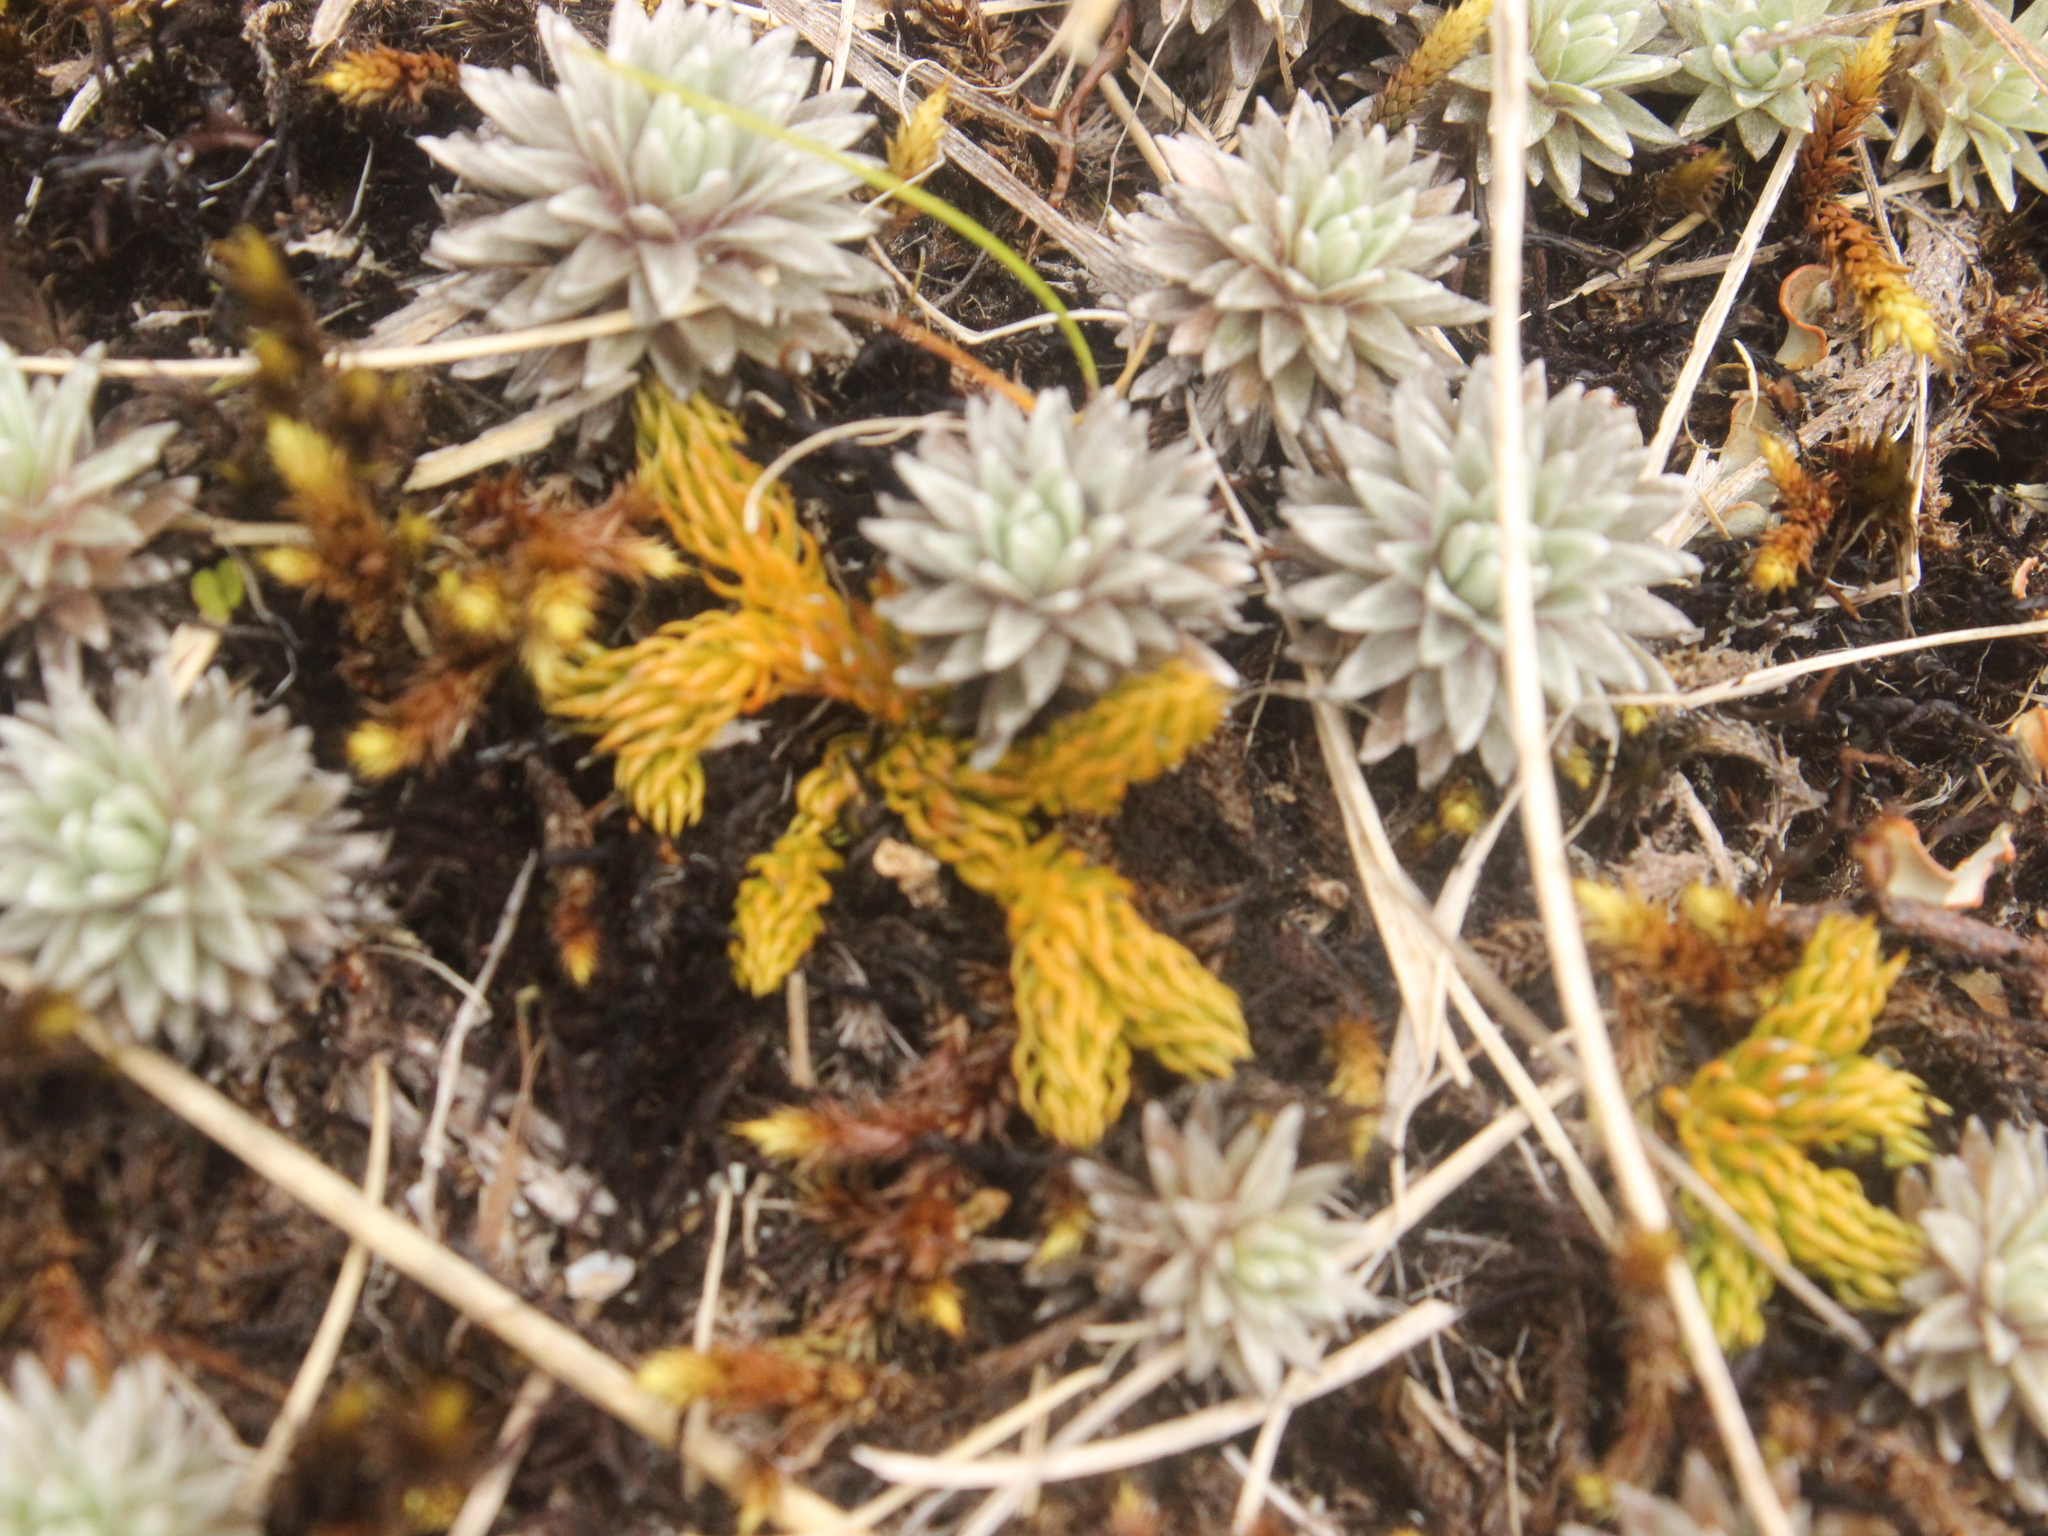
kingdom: Plantae
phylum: Tracheophyta
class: Magnoliopsida
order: Asterales
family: Asteraceae
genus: Raoulia
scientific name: Raoulia grandiflora
